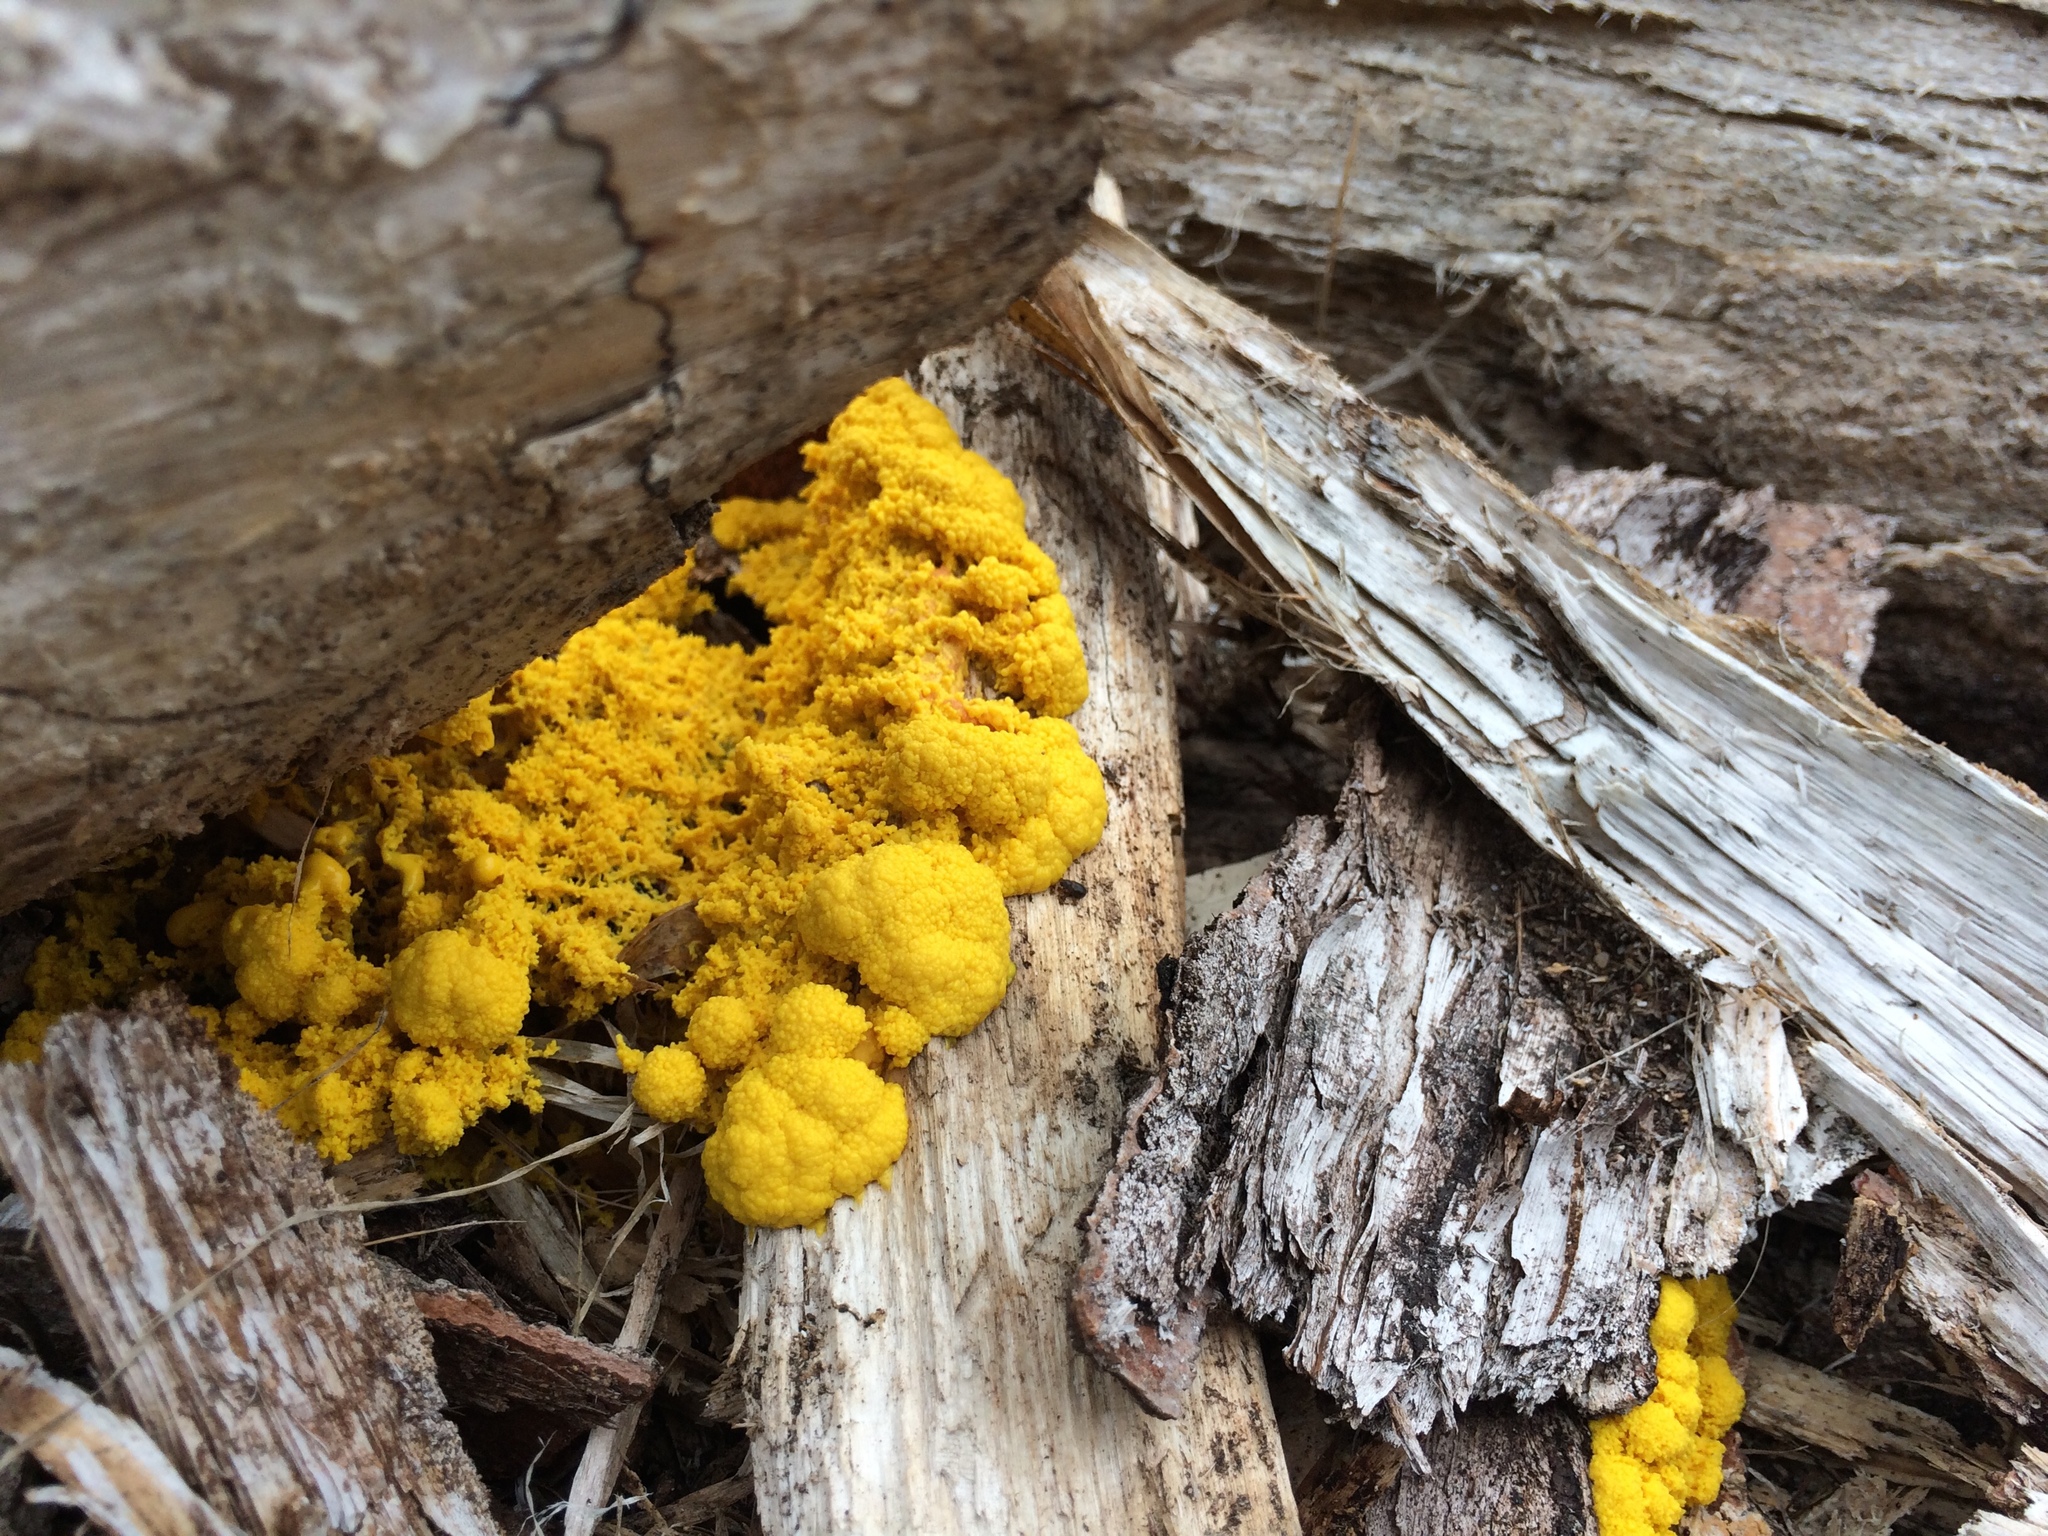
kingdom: Protozoa
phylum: Mycetozoa
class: Myxomycetes
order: Physarales
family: Physaraceae
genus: Fuligo
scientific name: Fuligo septica
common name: Dog vomit slime mold
